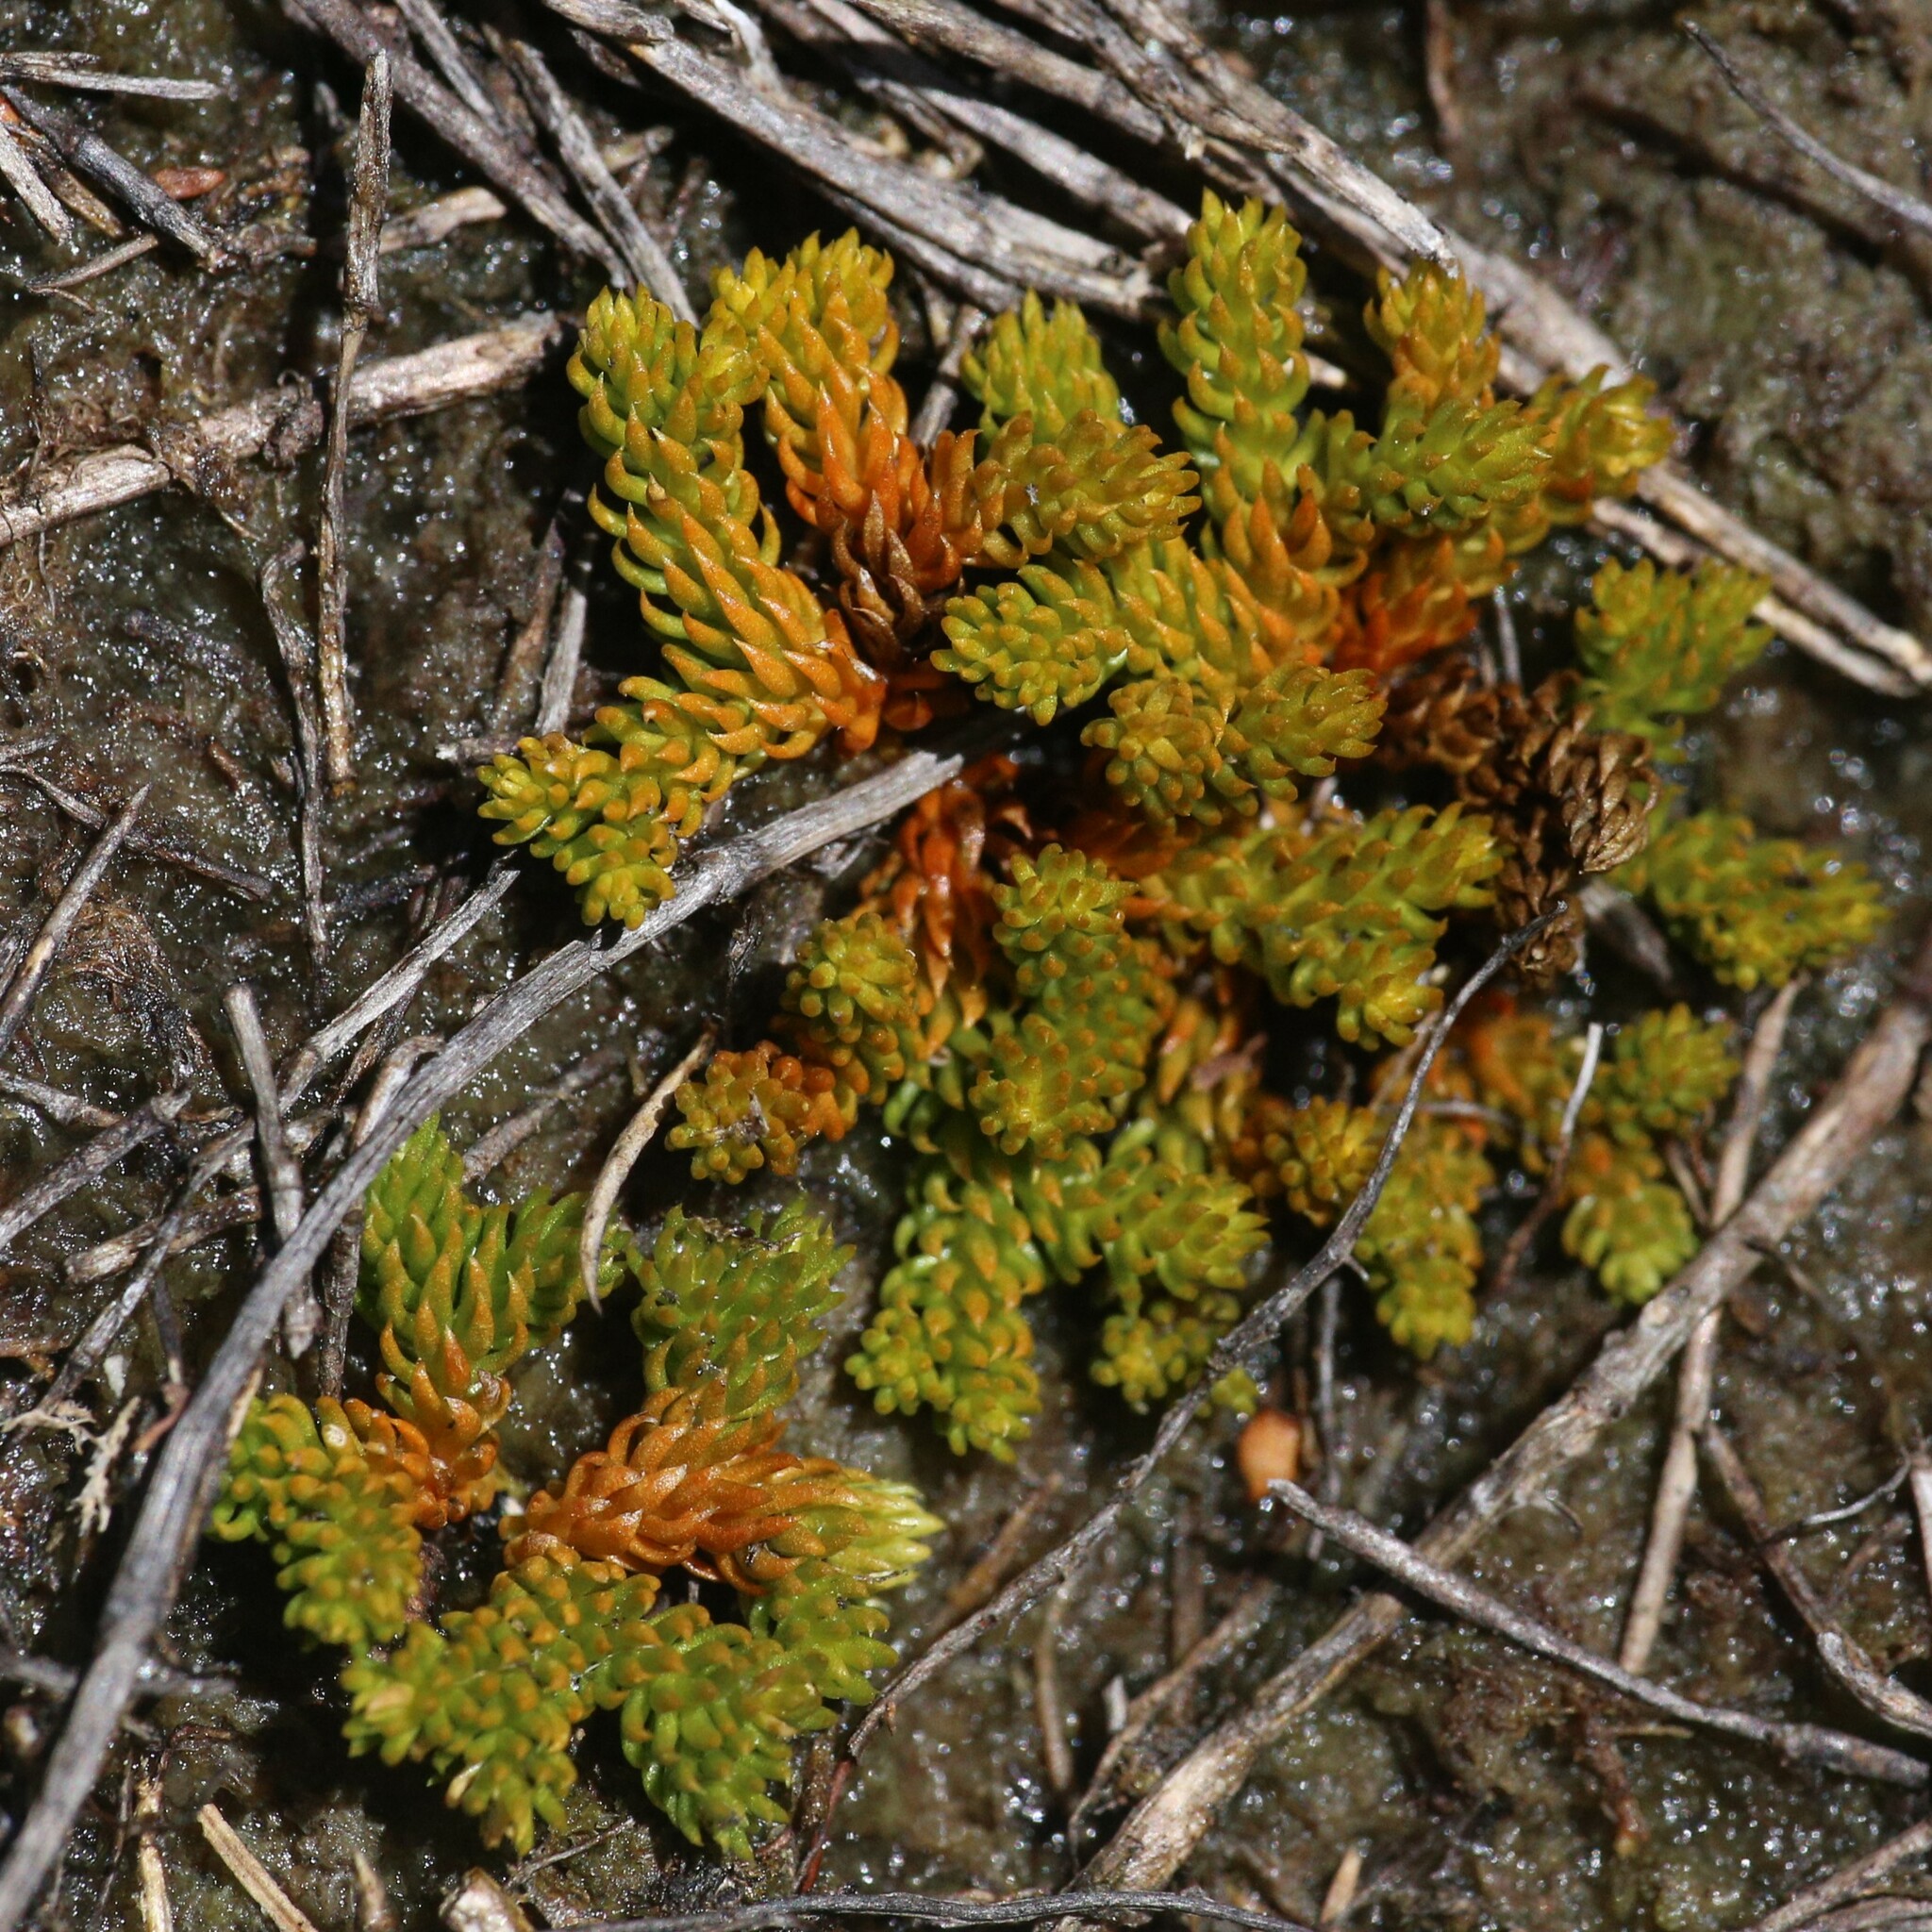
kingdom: Plantae
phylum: Tracheophyta
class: Lycopodiopsida
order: Lycopodiales
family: Lycopodiaceae
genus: Austrolycopodium
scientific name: Austrolycopodium fastigiatum
